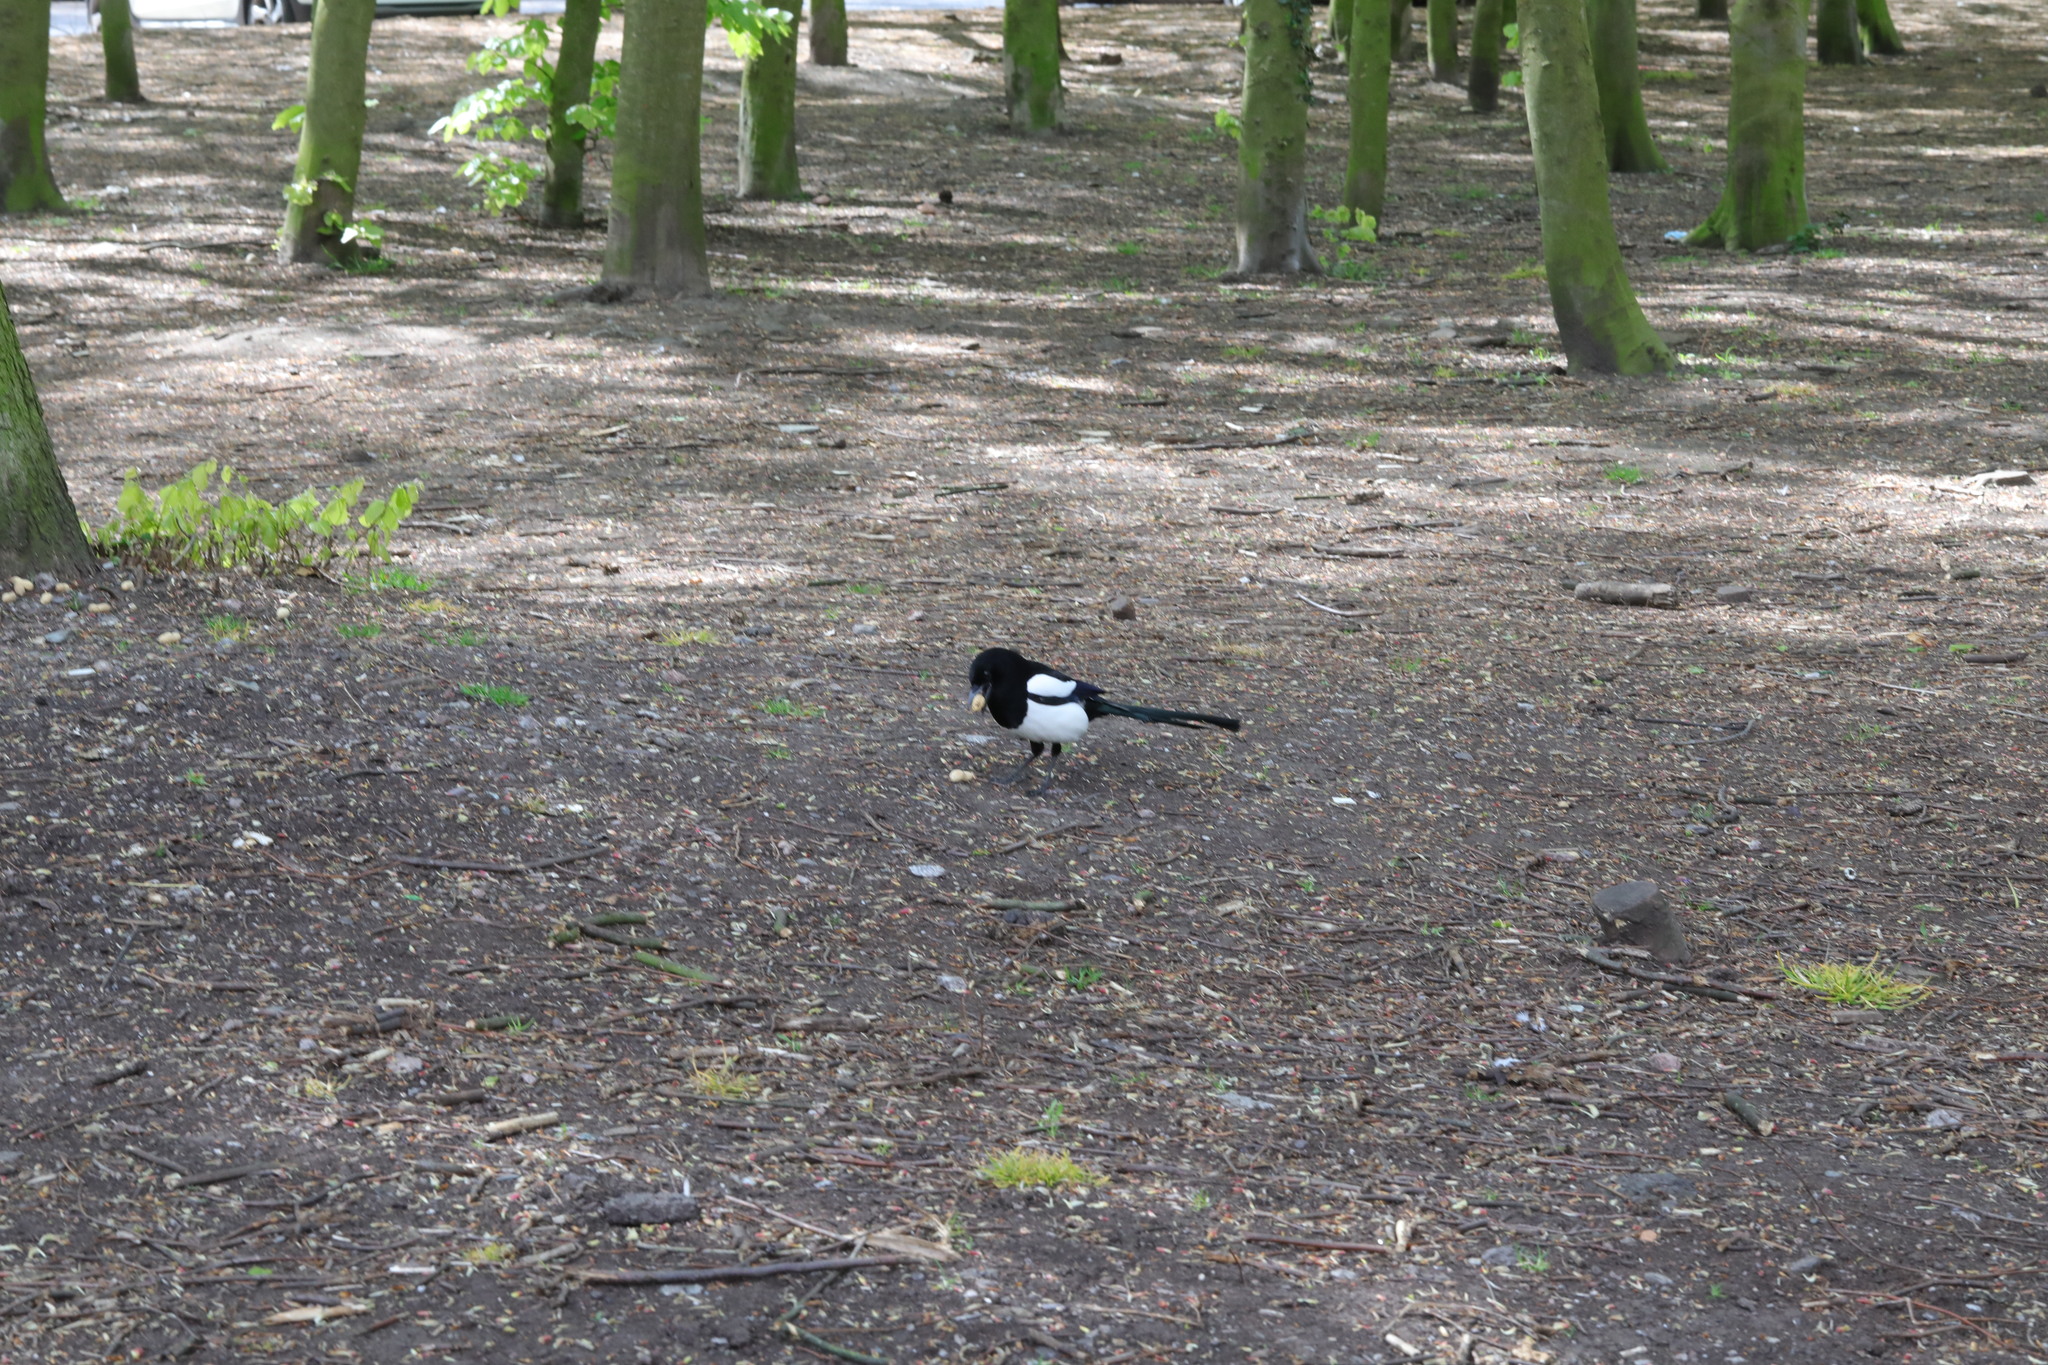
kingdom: Animalia
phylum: Chordata
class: Aves
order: Passeriformes
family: Corvidae
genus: Pica
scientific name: Pica pica
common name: Eurasian magpie
